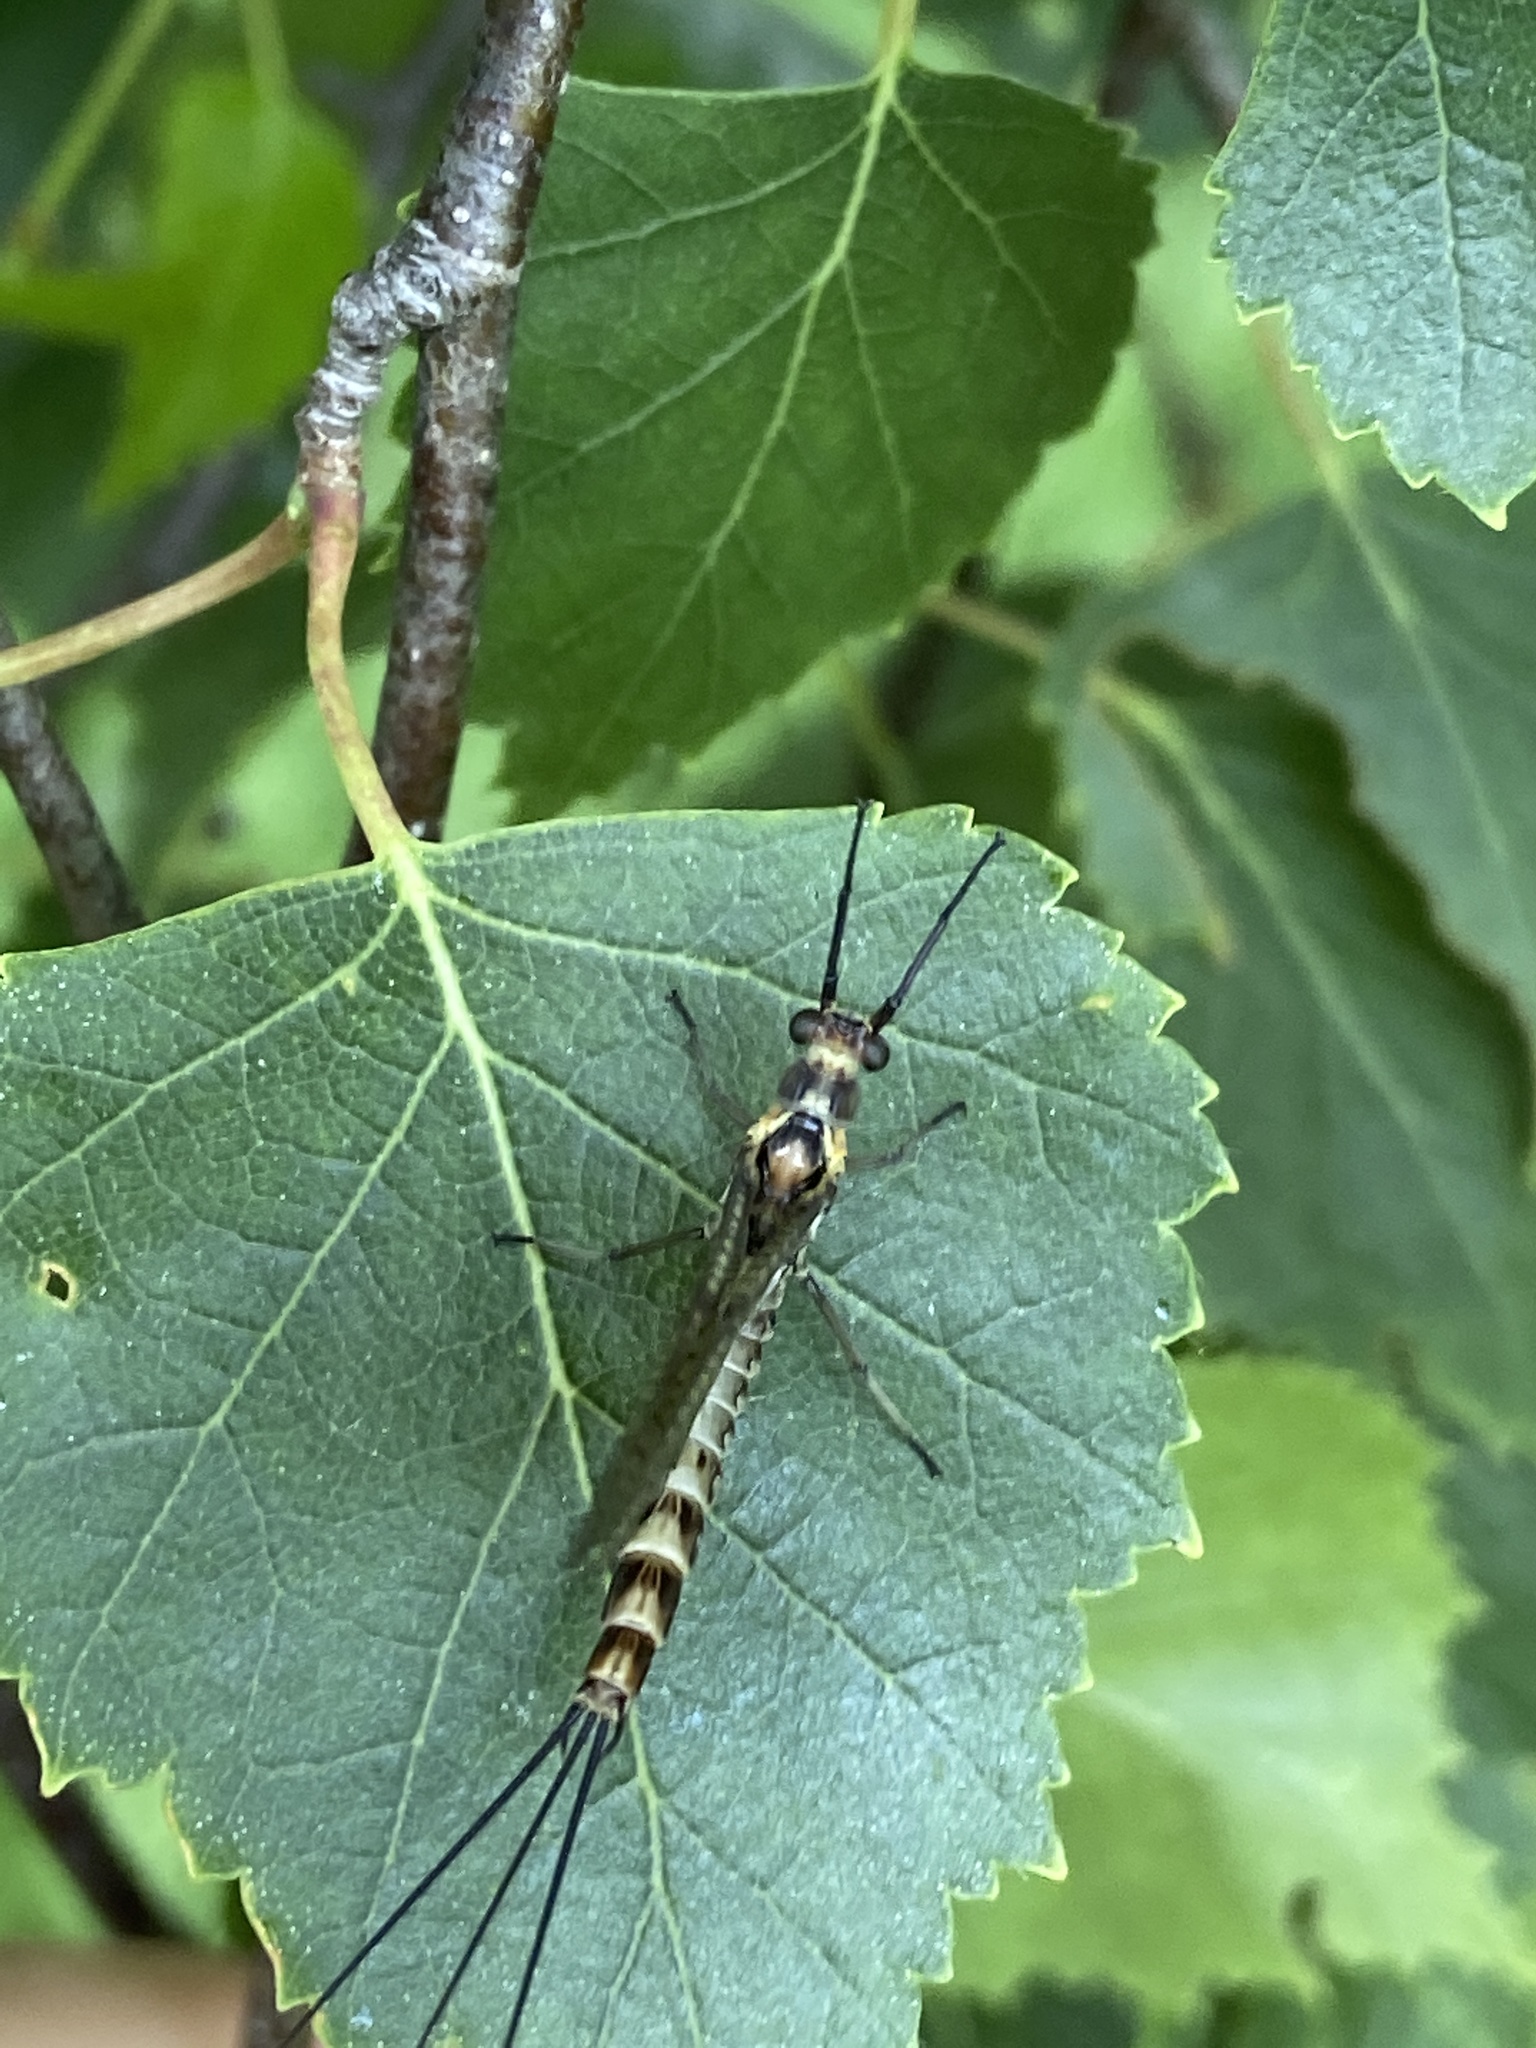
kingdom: Animalia
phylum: Arthropoda
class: Insecta
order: Ephemeroptera
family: Ephemeridae
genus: Ephemera
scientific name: Ephemera danica
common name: Green dun
